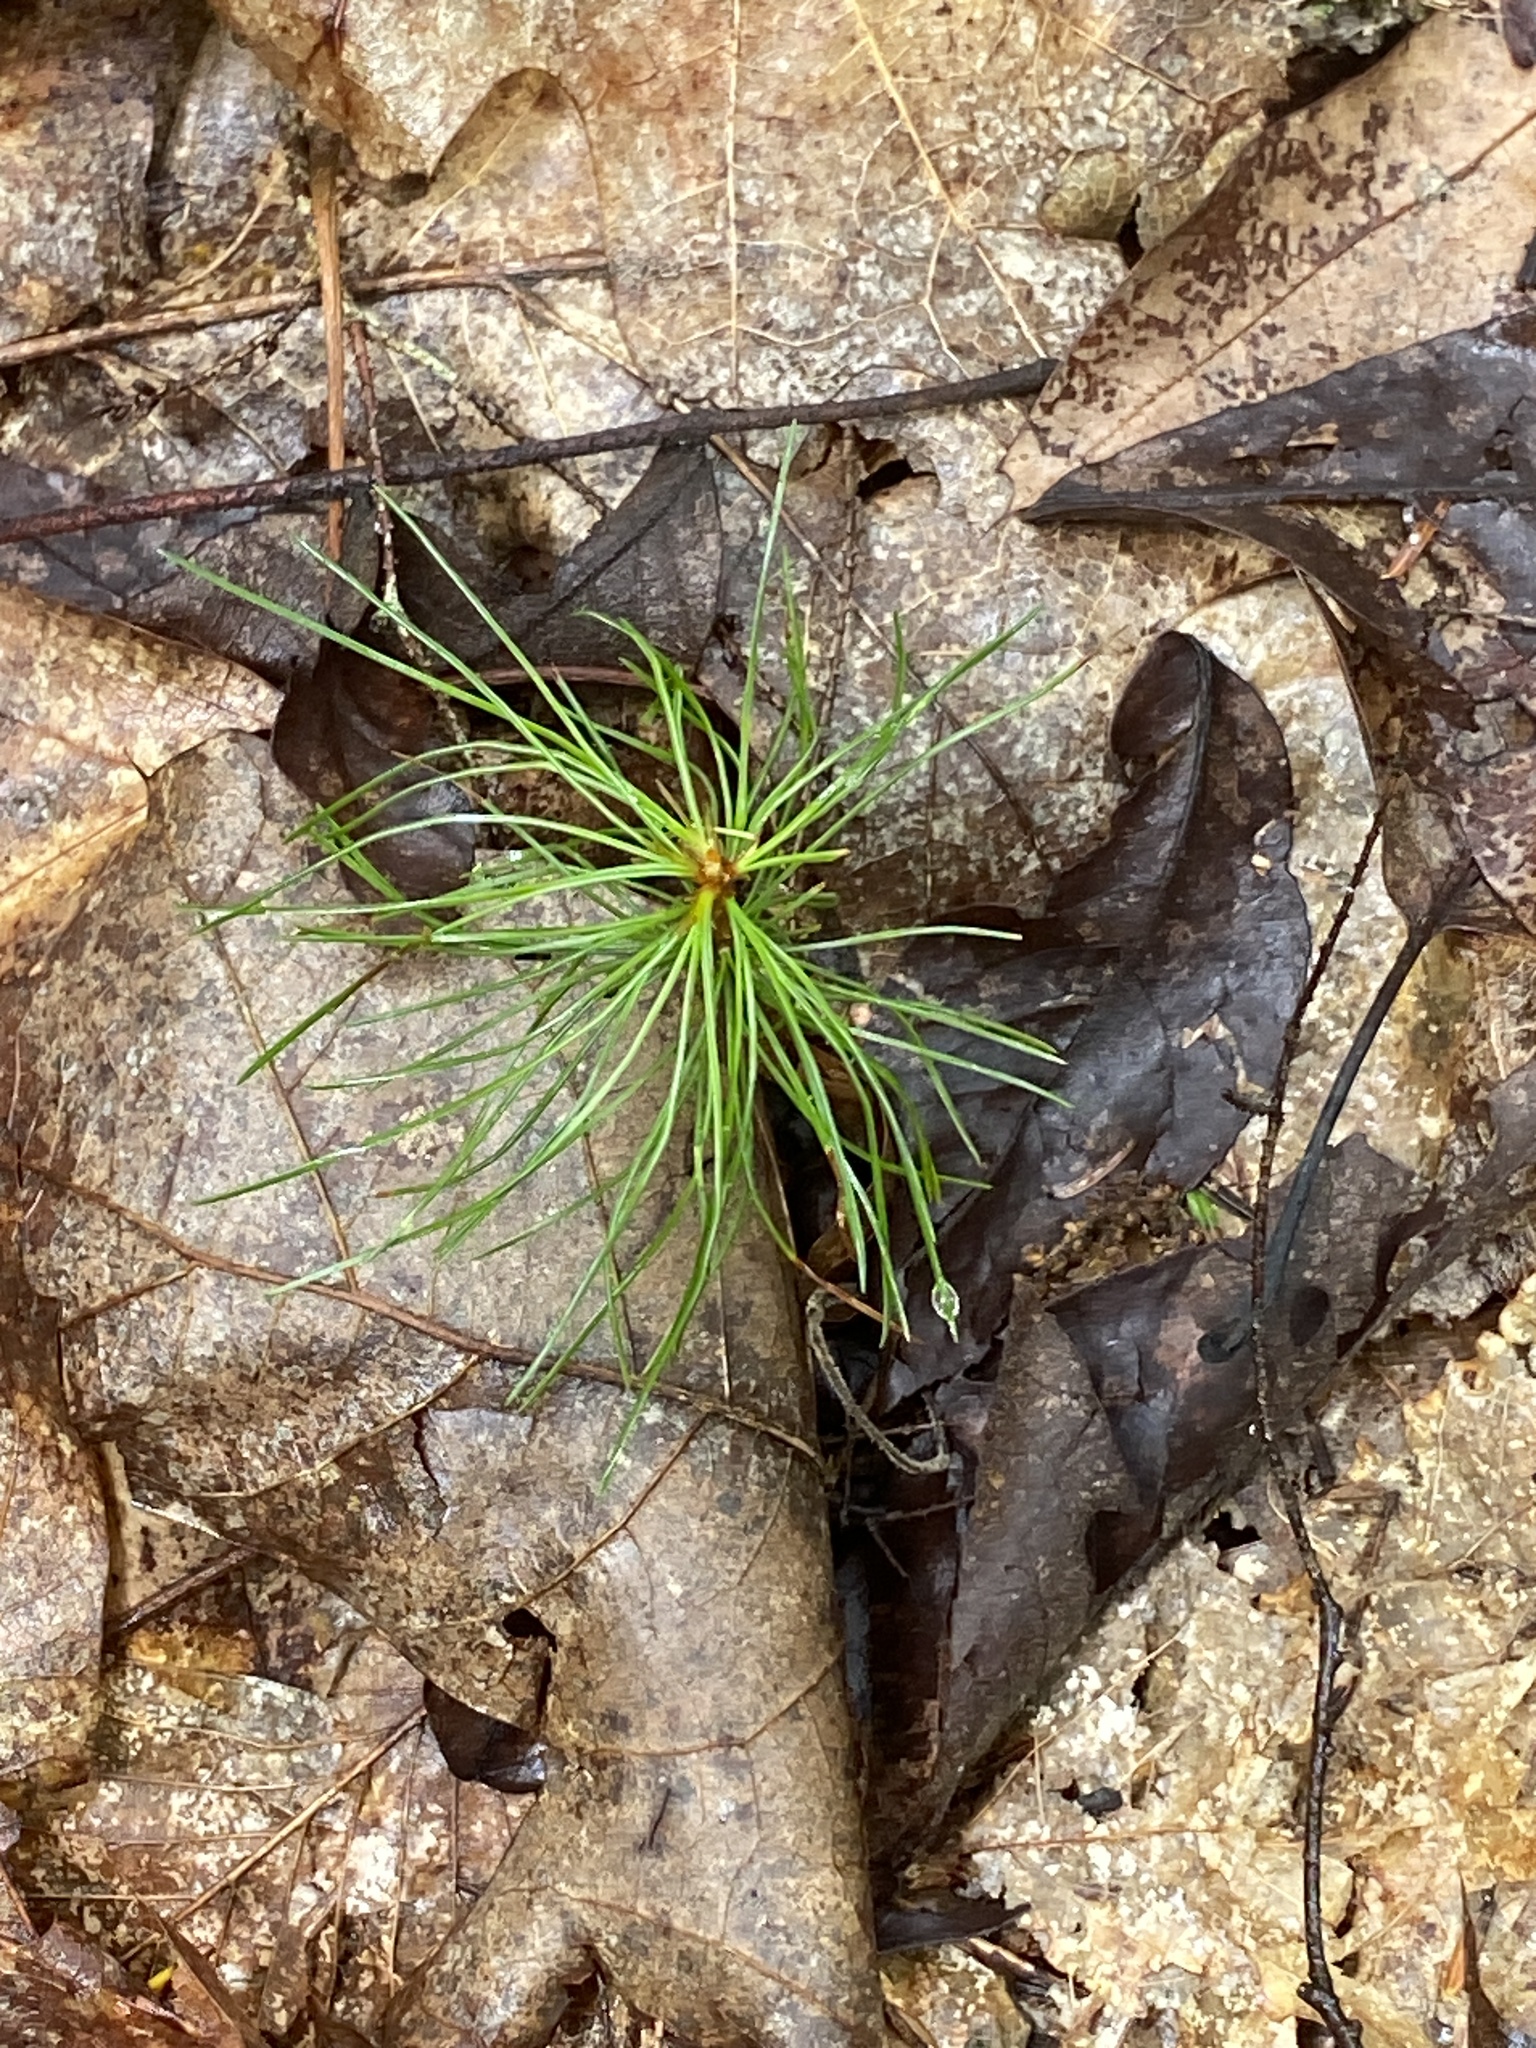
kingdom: Plantae
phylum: Tracheophyta
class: Pinopsida
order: Pinales
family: Pinaceae
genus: Pinus
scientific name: Pinus strobus
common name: Weymouth pine
